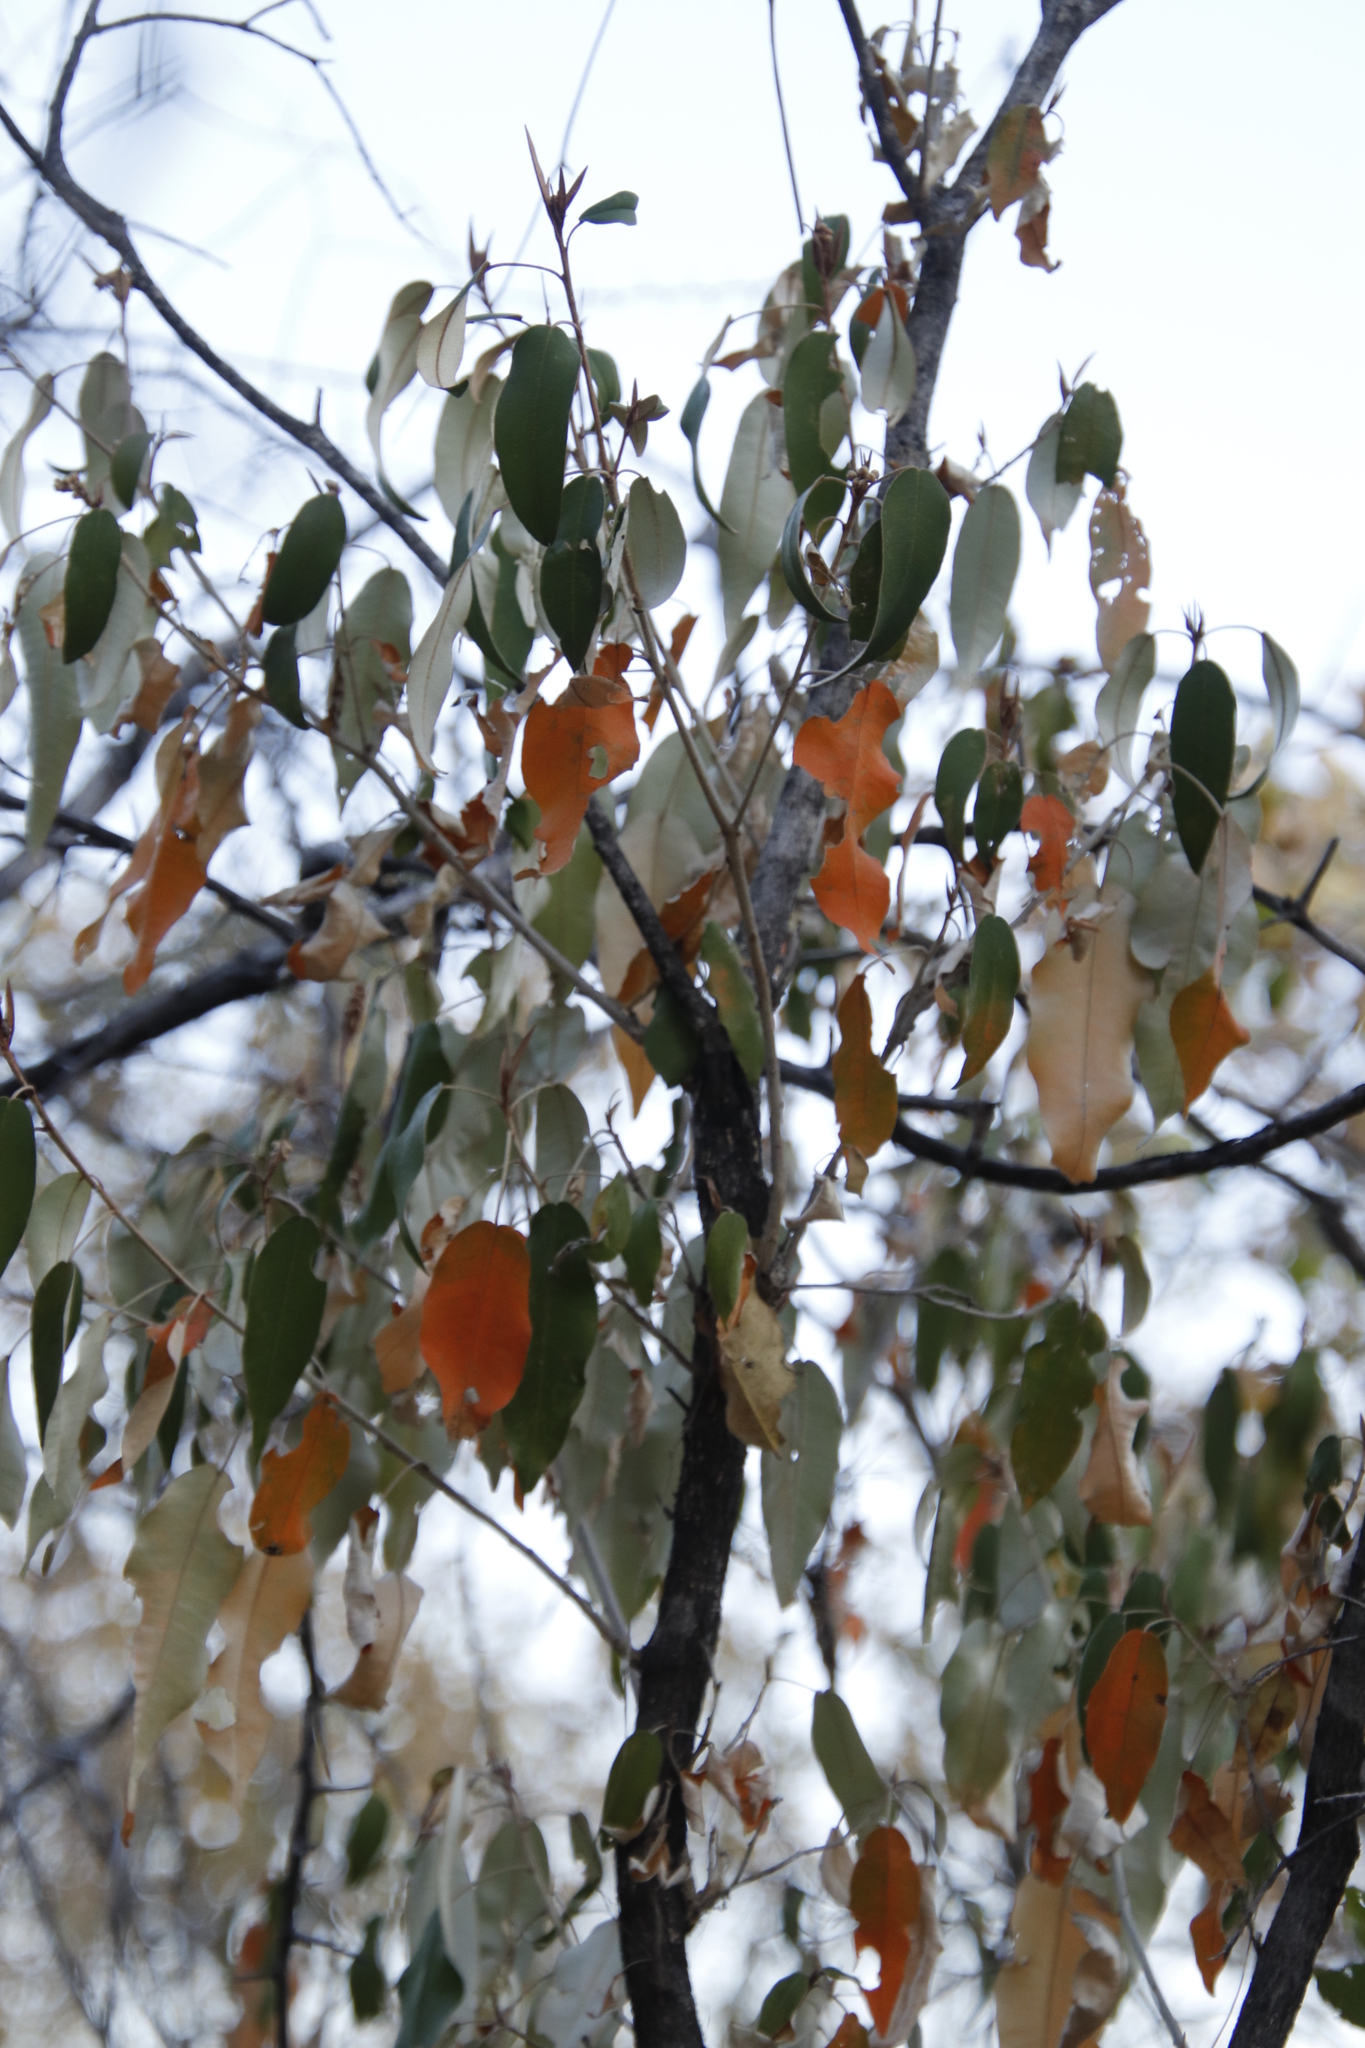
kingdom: Plantae
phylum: Tracheophyta
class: Magnoliopsida
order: Malpighiales
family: Euphorbiaceae
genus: Croton
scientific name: Croton gratissimus
